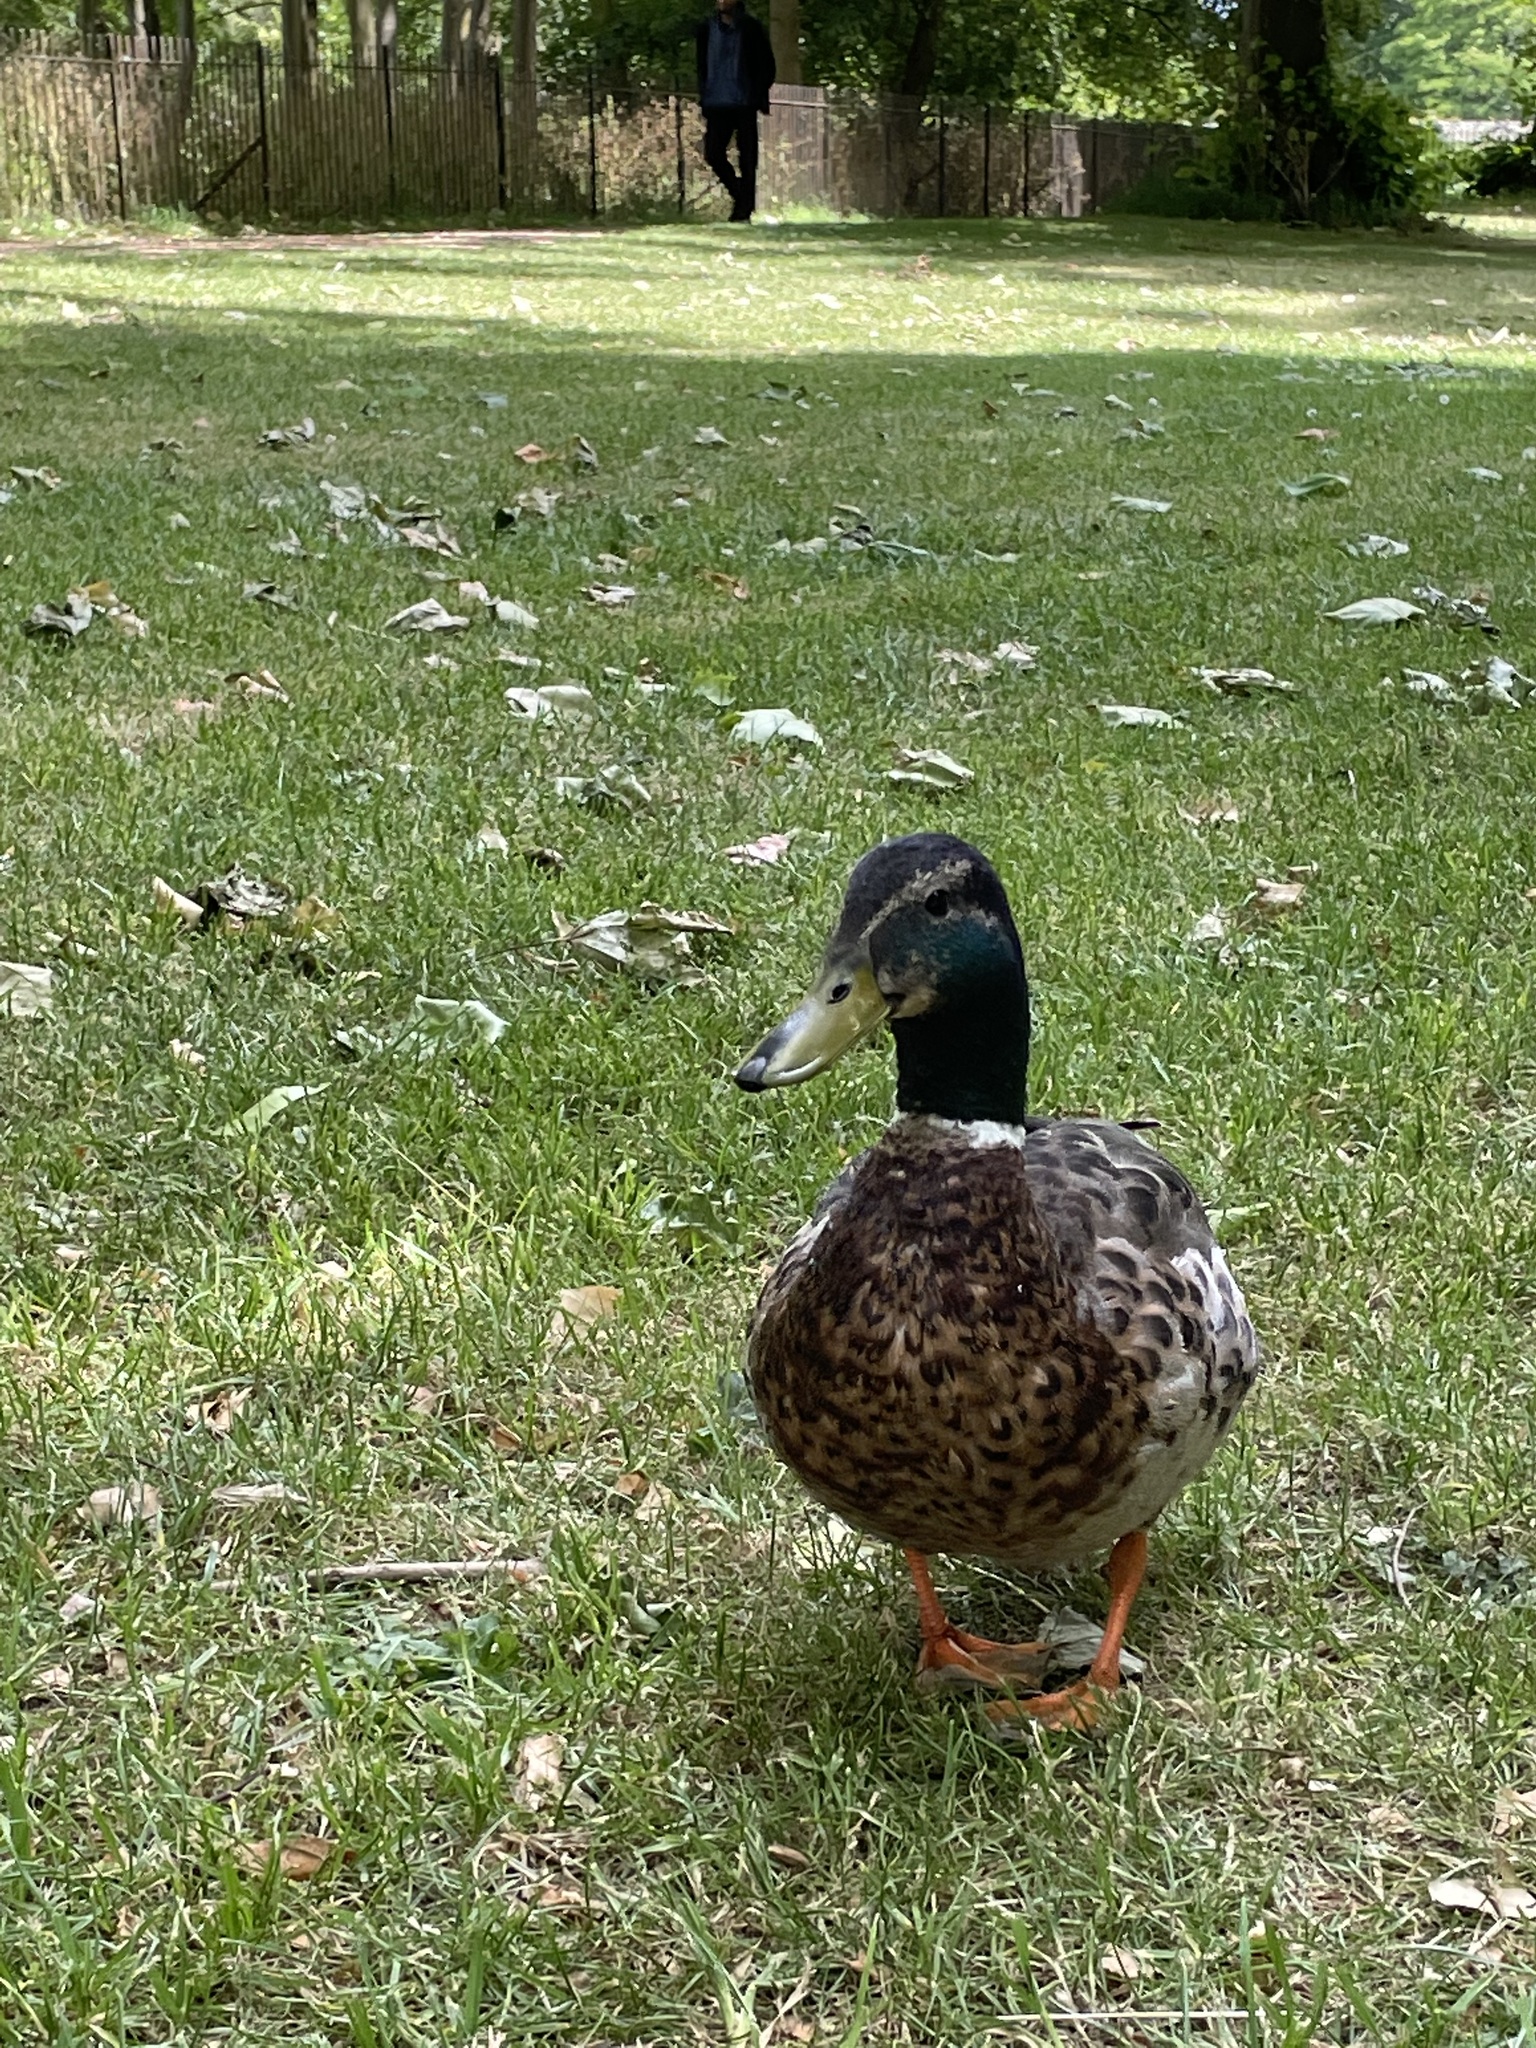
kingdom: Animalia
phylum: Chordata
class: Aves
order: Anseriformes
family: Anatidae
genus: Anas
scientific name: Anas platyrhynchos
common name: Mallard
